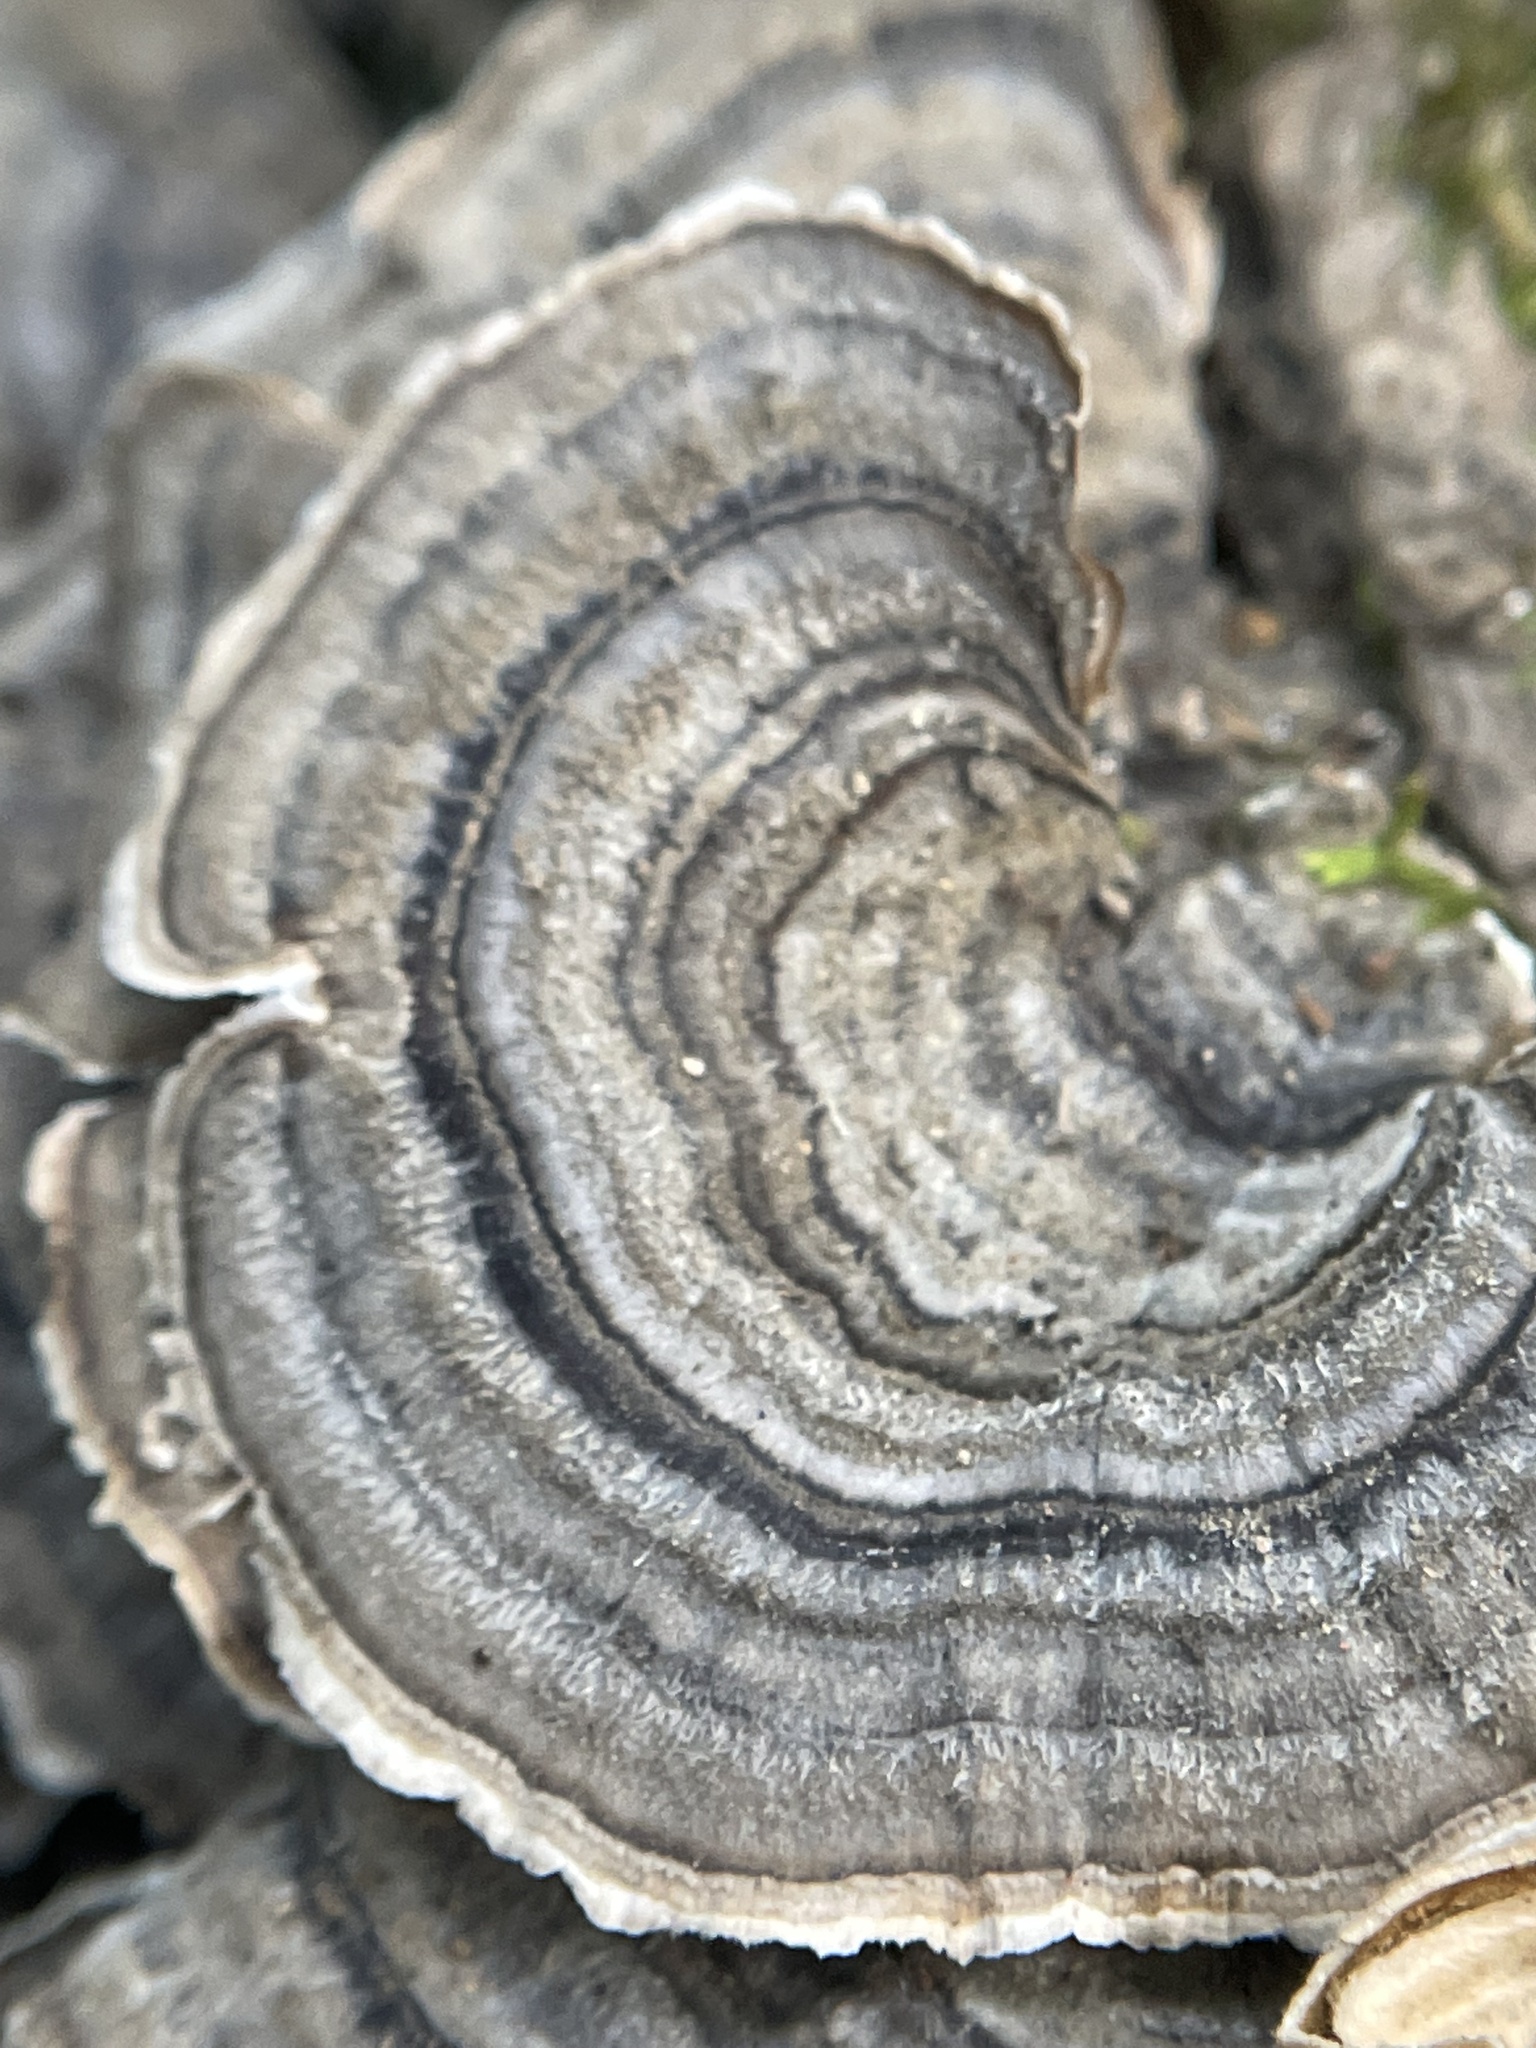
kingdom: Fungi
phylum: Basidiomycota
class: Agaricomycetes
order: Polyporales
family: Polyporaceae
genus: Trametes
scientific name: Trametes versicolor
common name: Turkeytail
